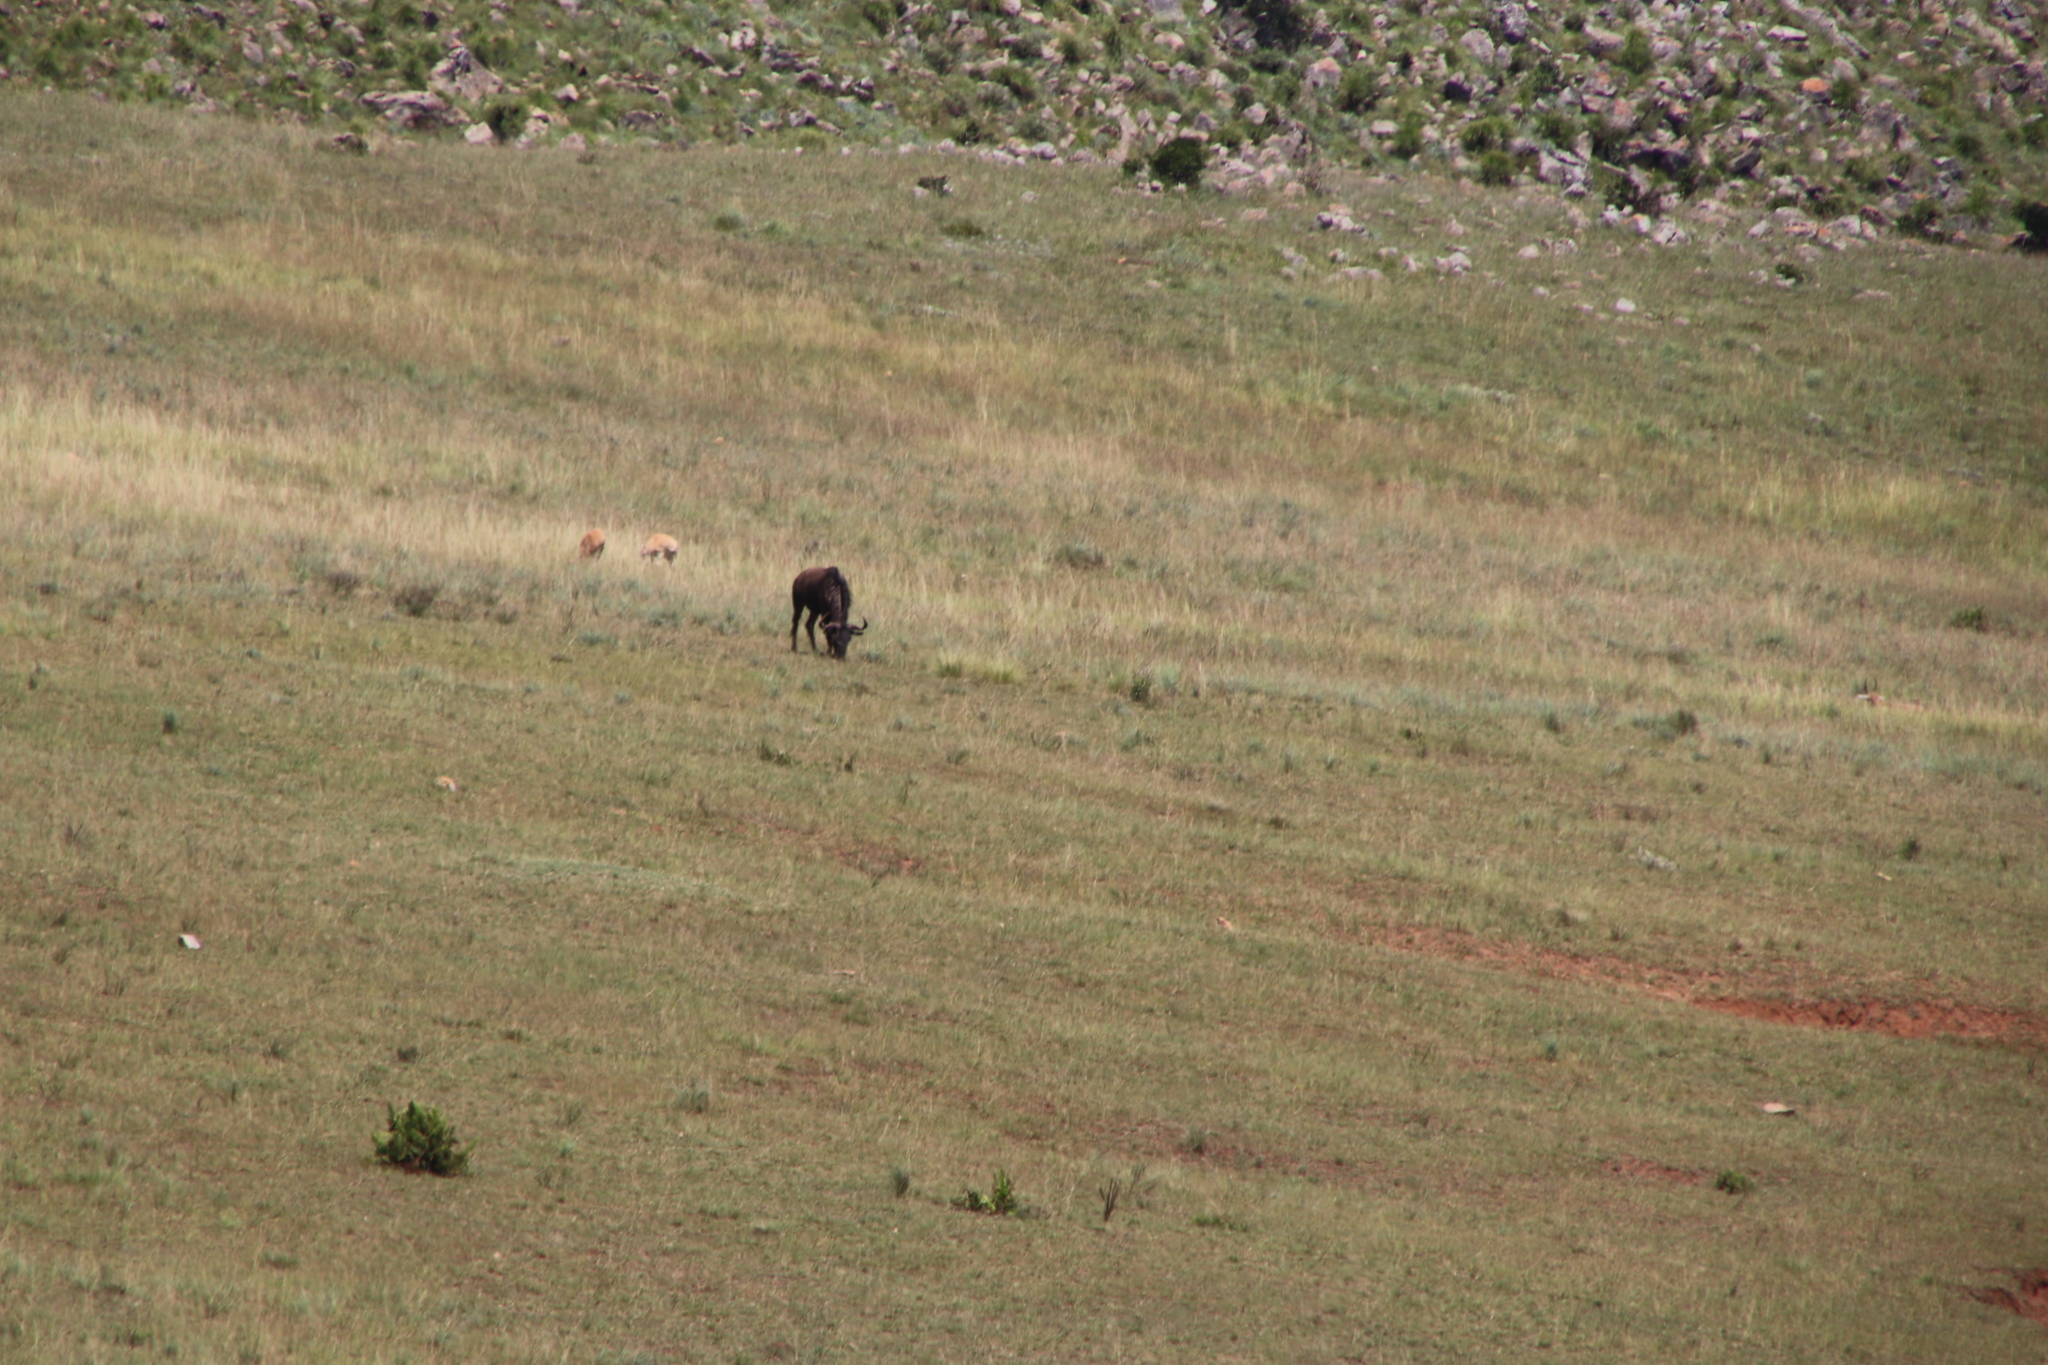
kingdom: Animalia
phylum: Chordata
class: Mammalia
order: Artiodactyla
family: Bovidae
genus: Connochaetes
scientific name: Connochaetes taurinus
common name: Blue wildebeest
